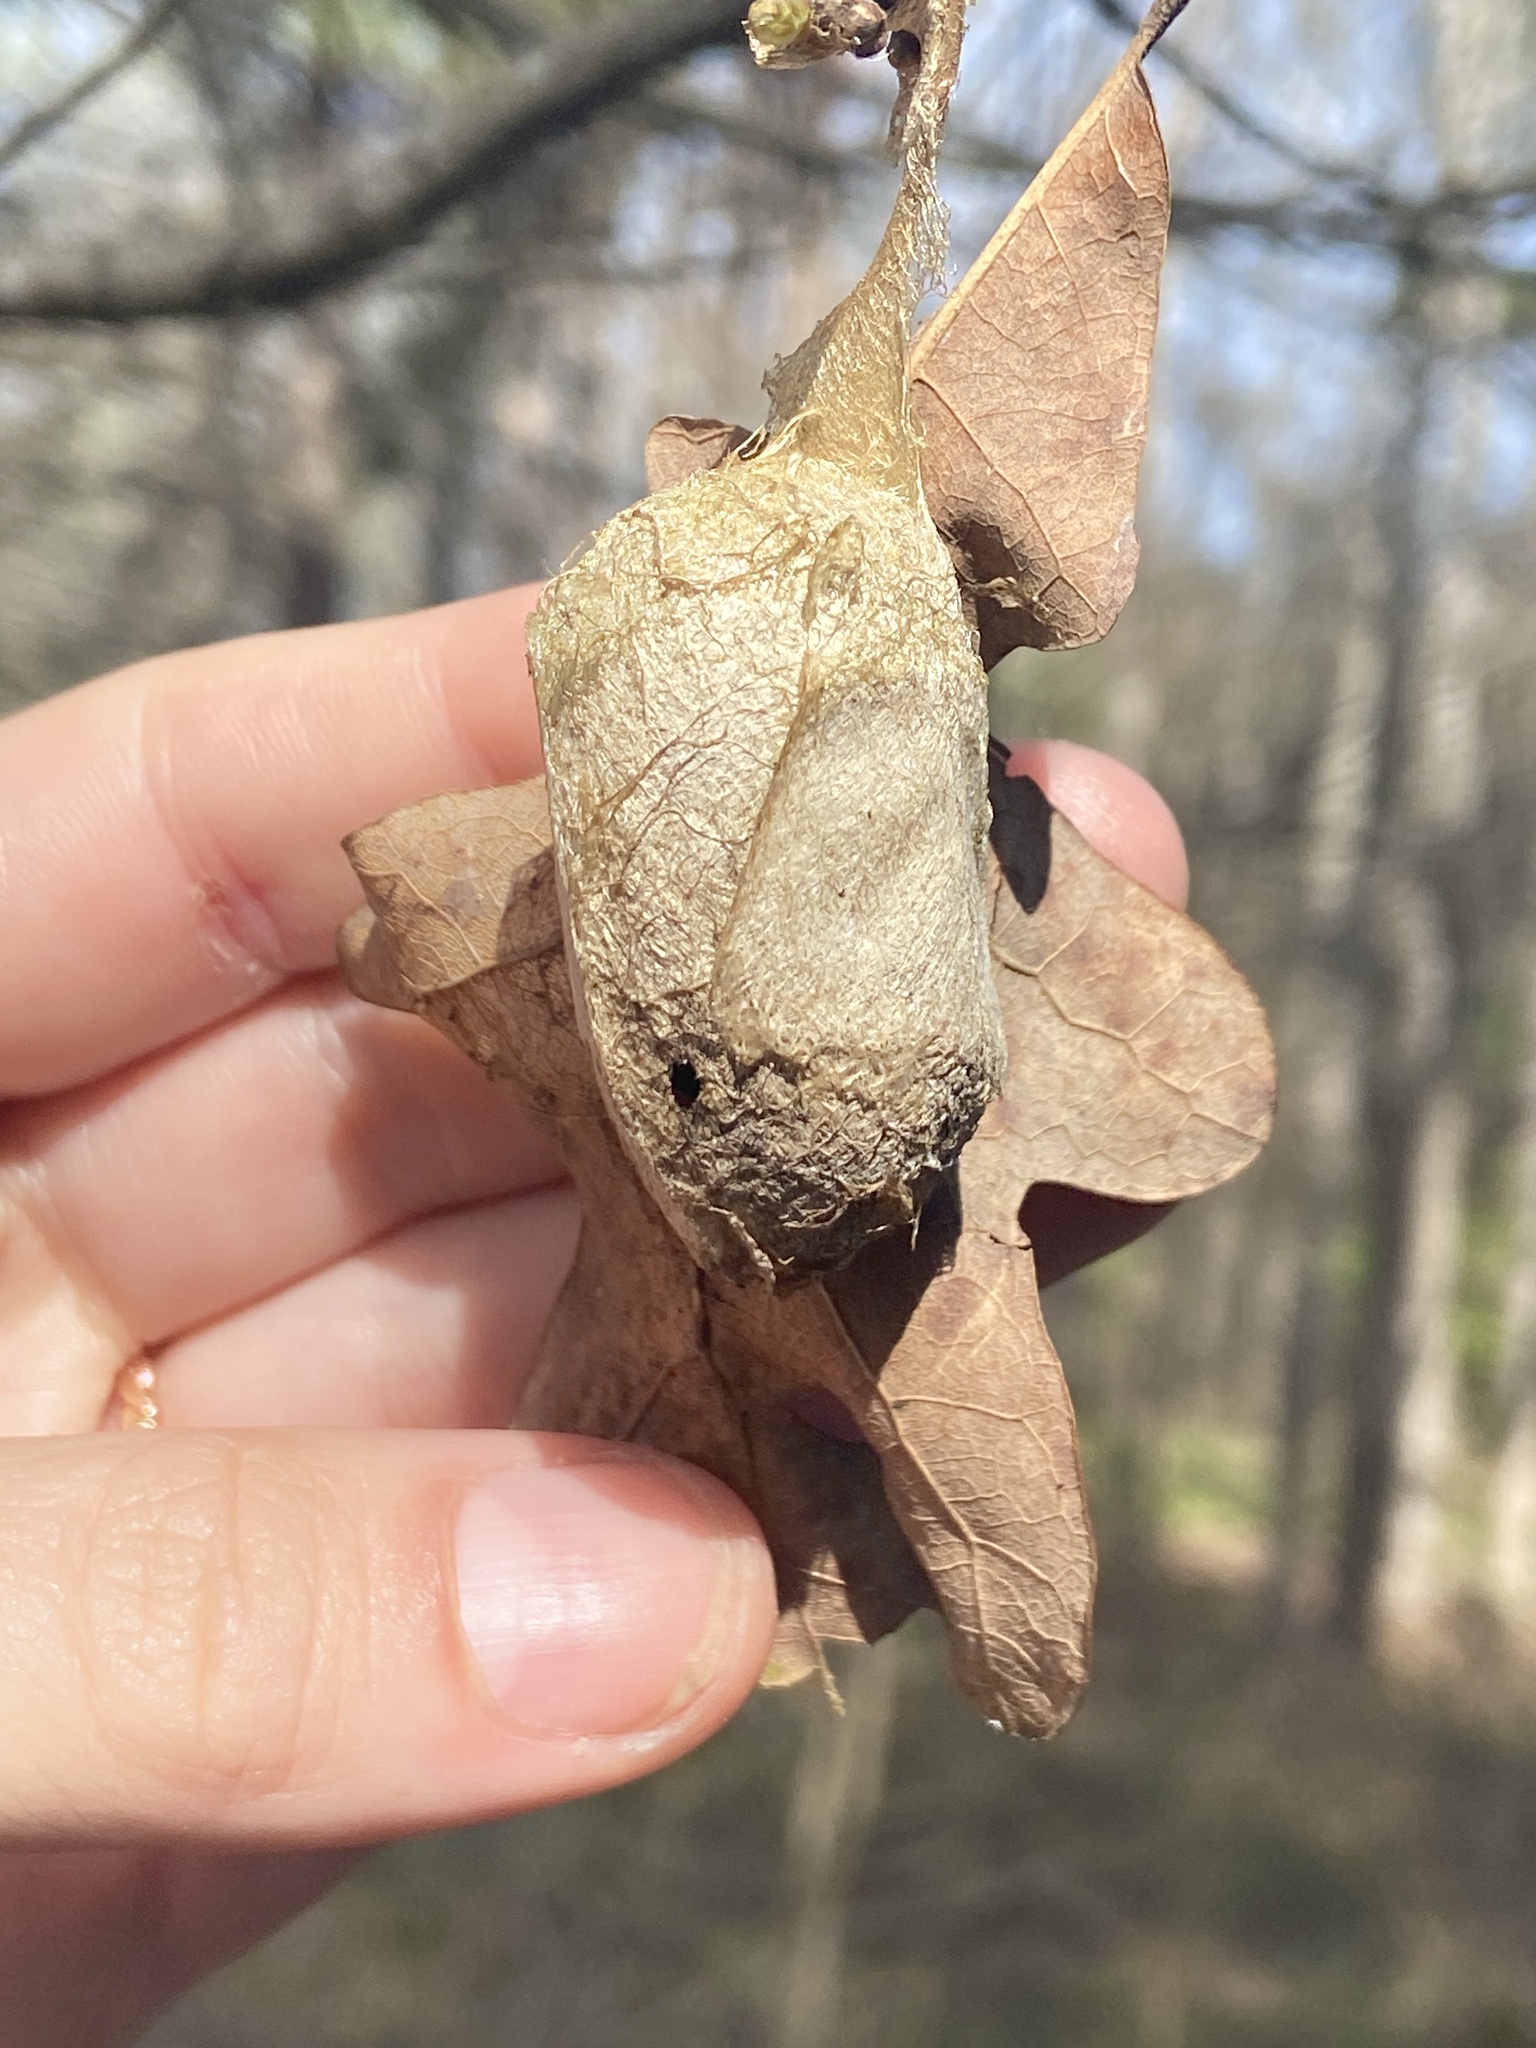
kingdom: Animalia
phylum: Arthropoda
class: Insecta
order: Lepidoptera
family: Saturniidae
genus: Antheraea
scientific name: Antheraea polyphemus
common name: Polyphemus moth
